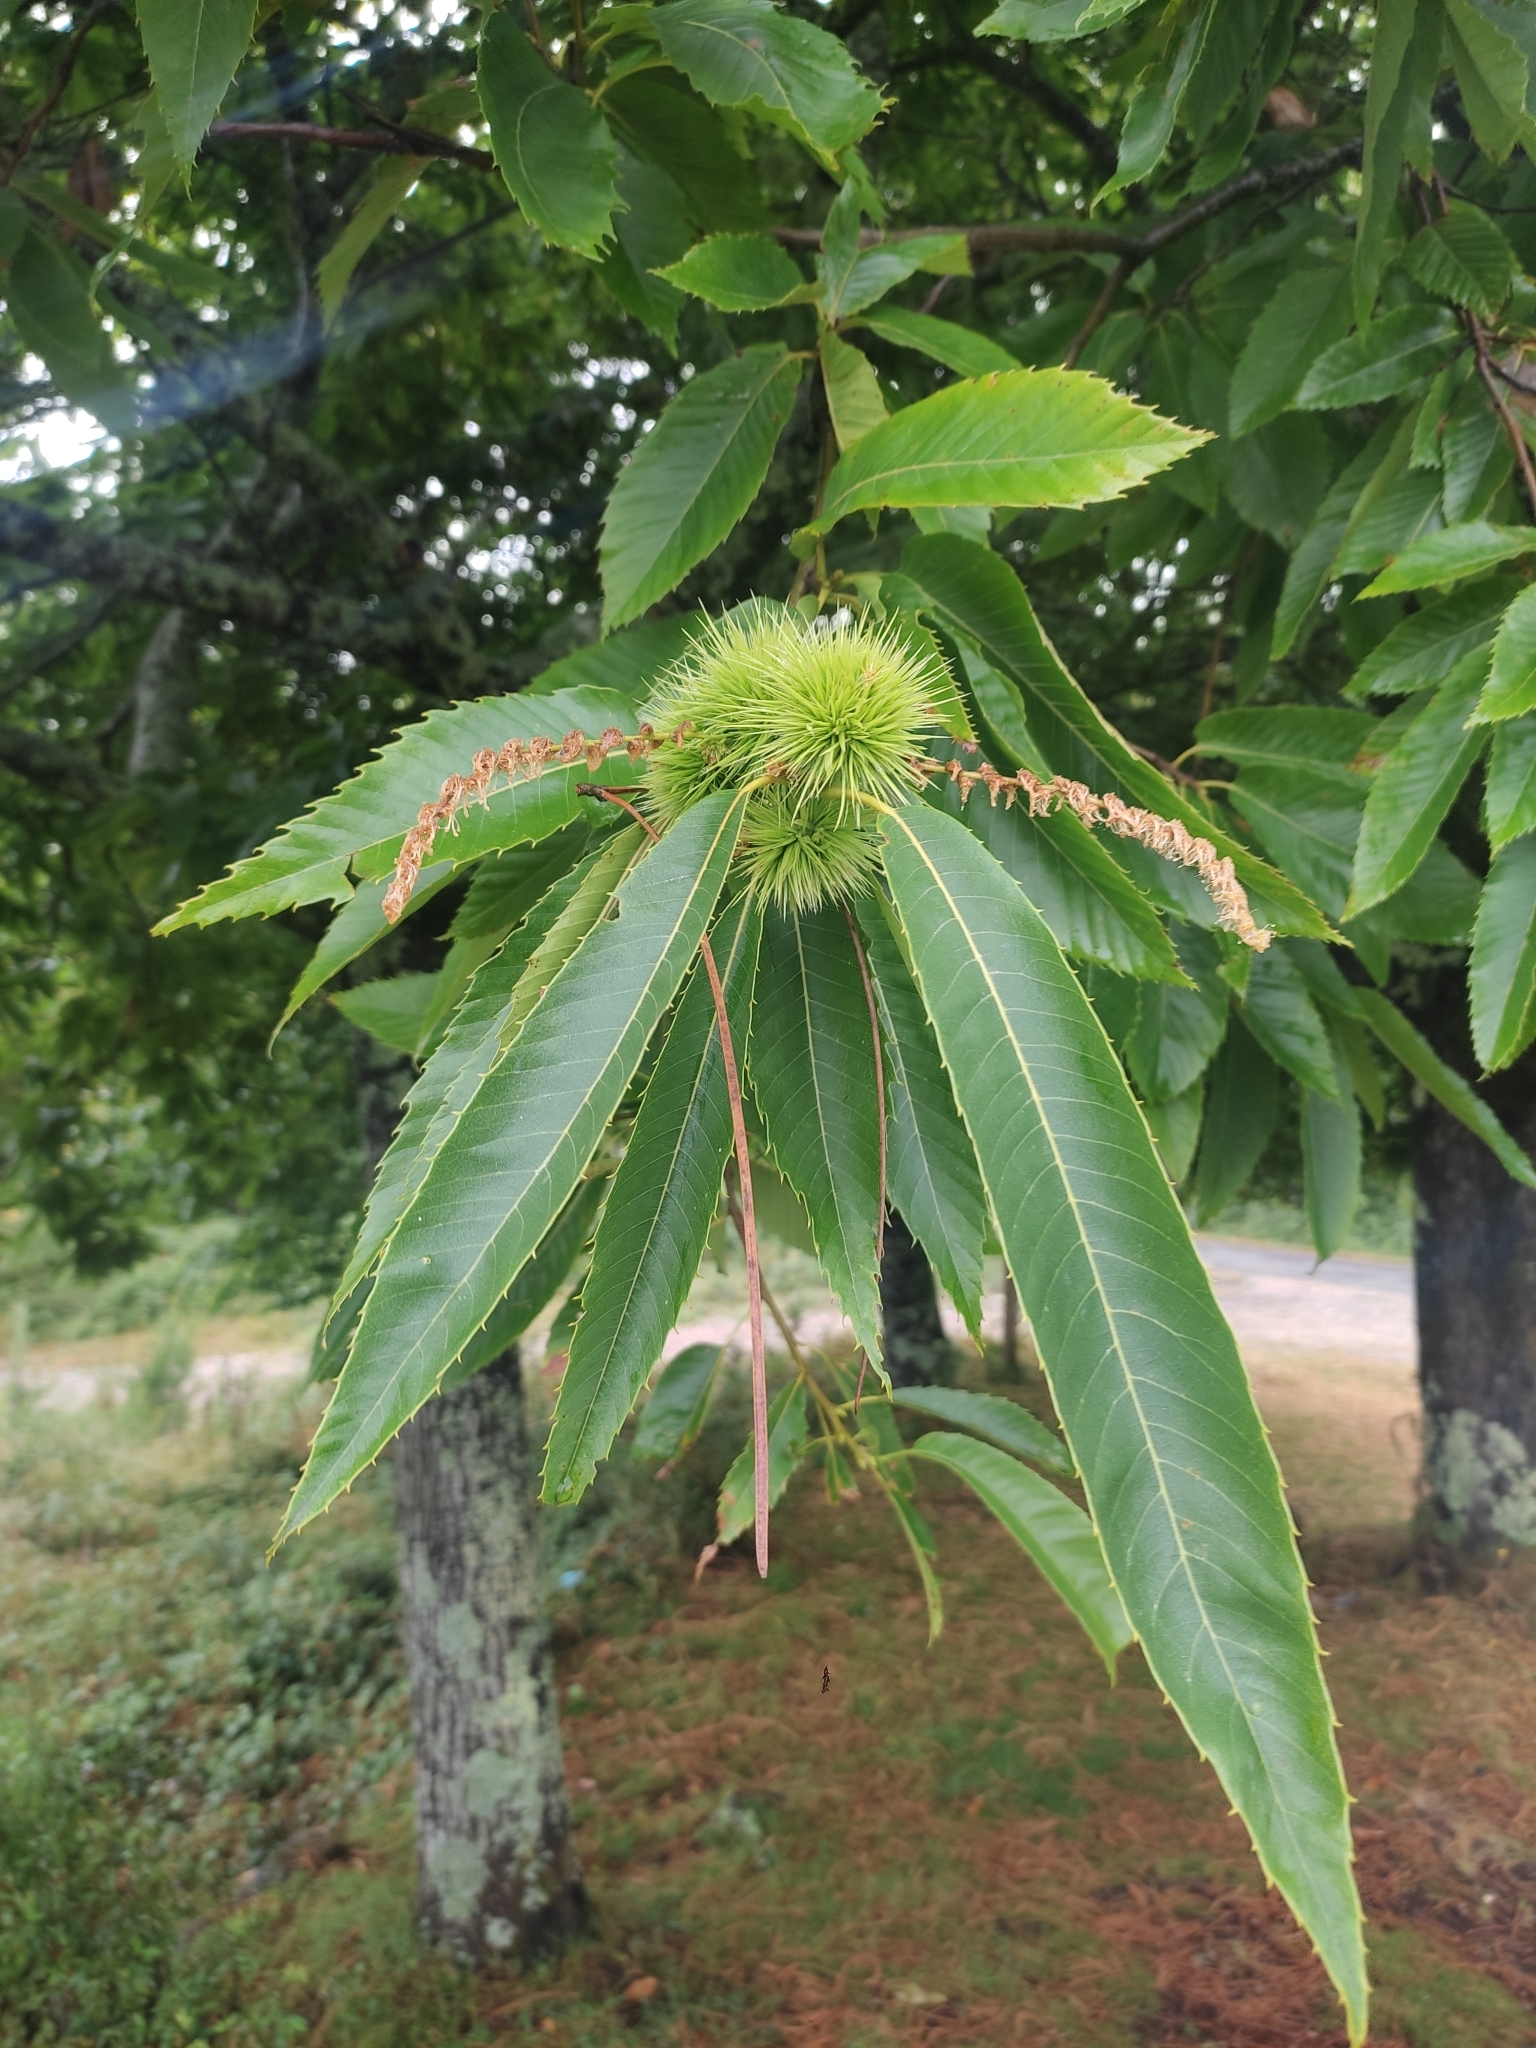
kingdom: Plantae
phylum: Tracheophyta
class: Magnoliopsida
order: Fagales
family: Fagaceae
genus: Castanea
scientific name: Castanea sativa
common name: Sweet chestnut
